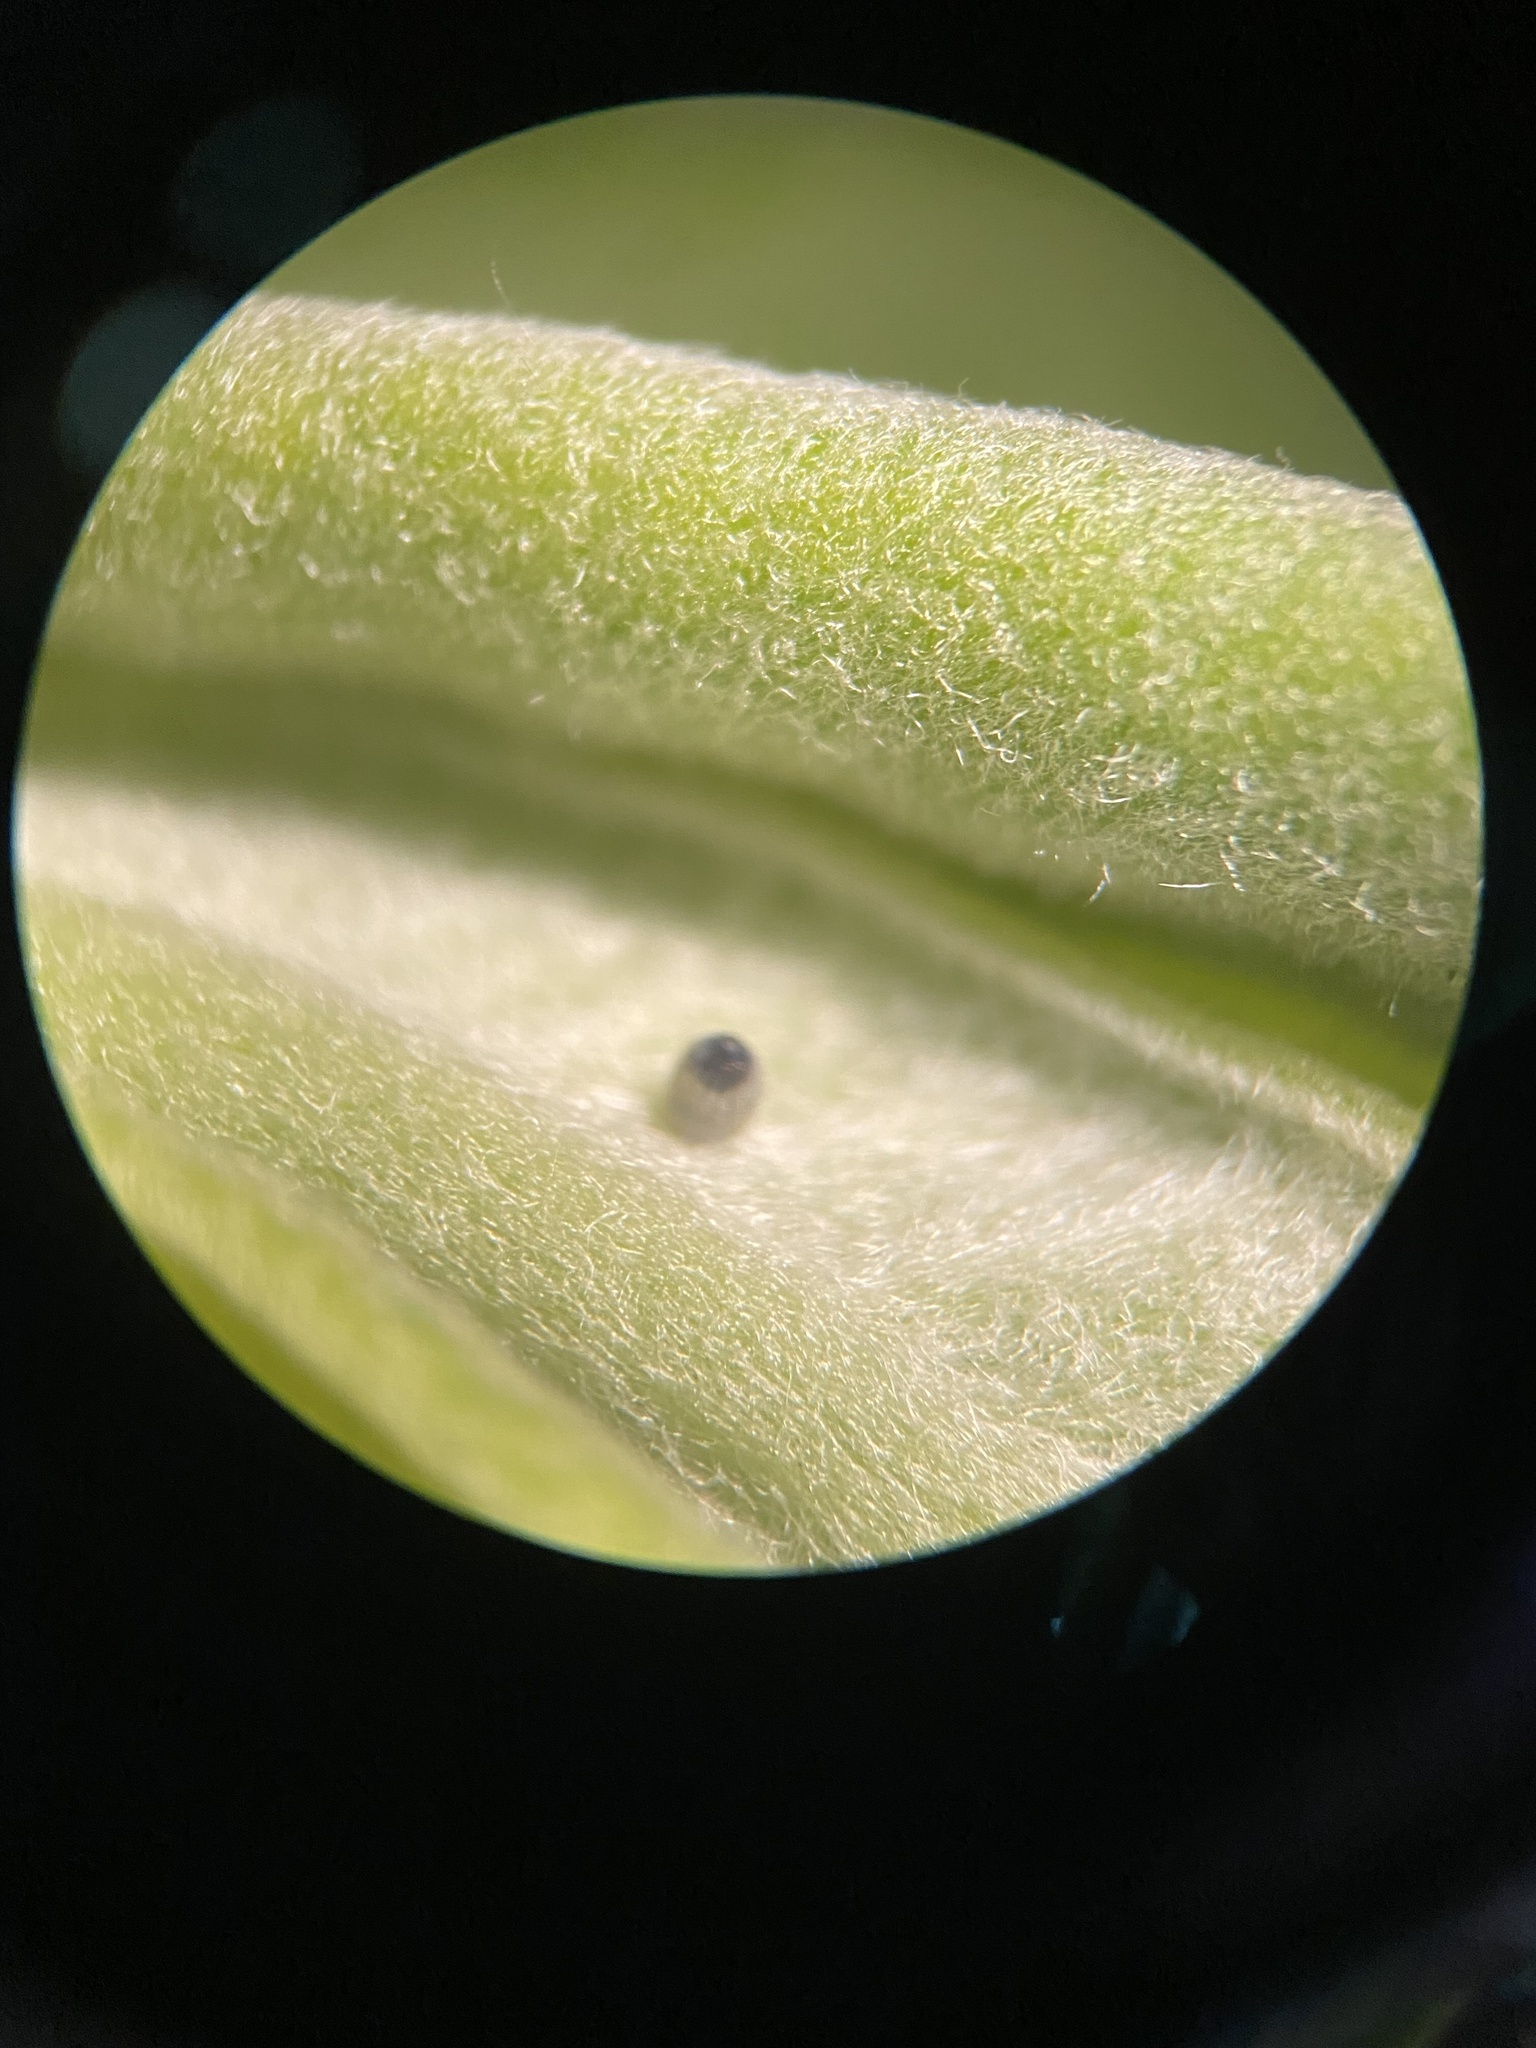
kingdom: Animalia
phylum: Arthropoda
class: Insecta
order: Lepidoptera
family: Nymphalidae
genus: Danaus
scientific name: Danaus plexippus
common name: Monarch
